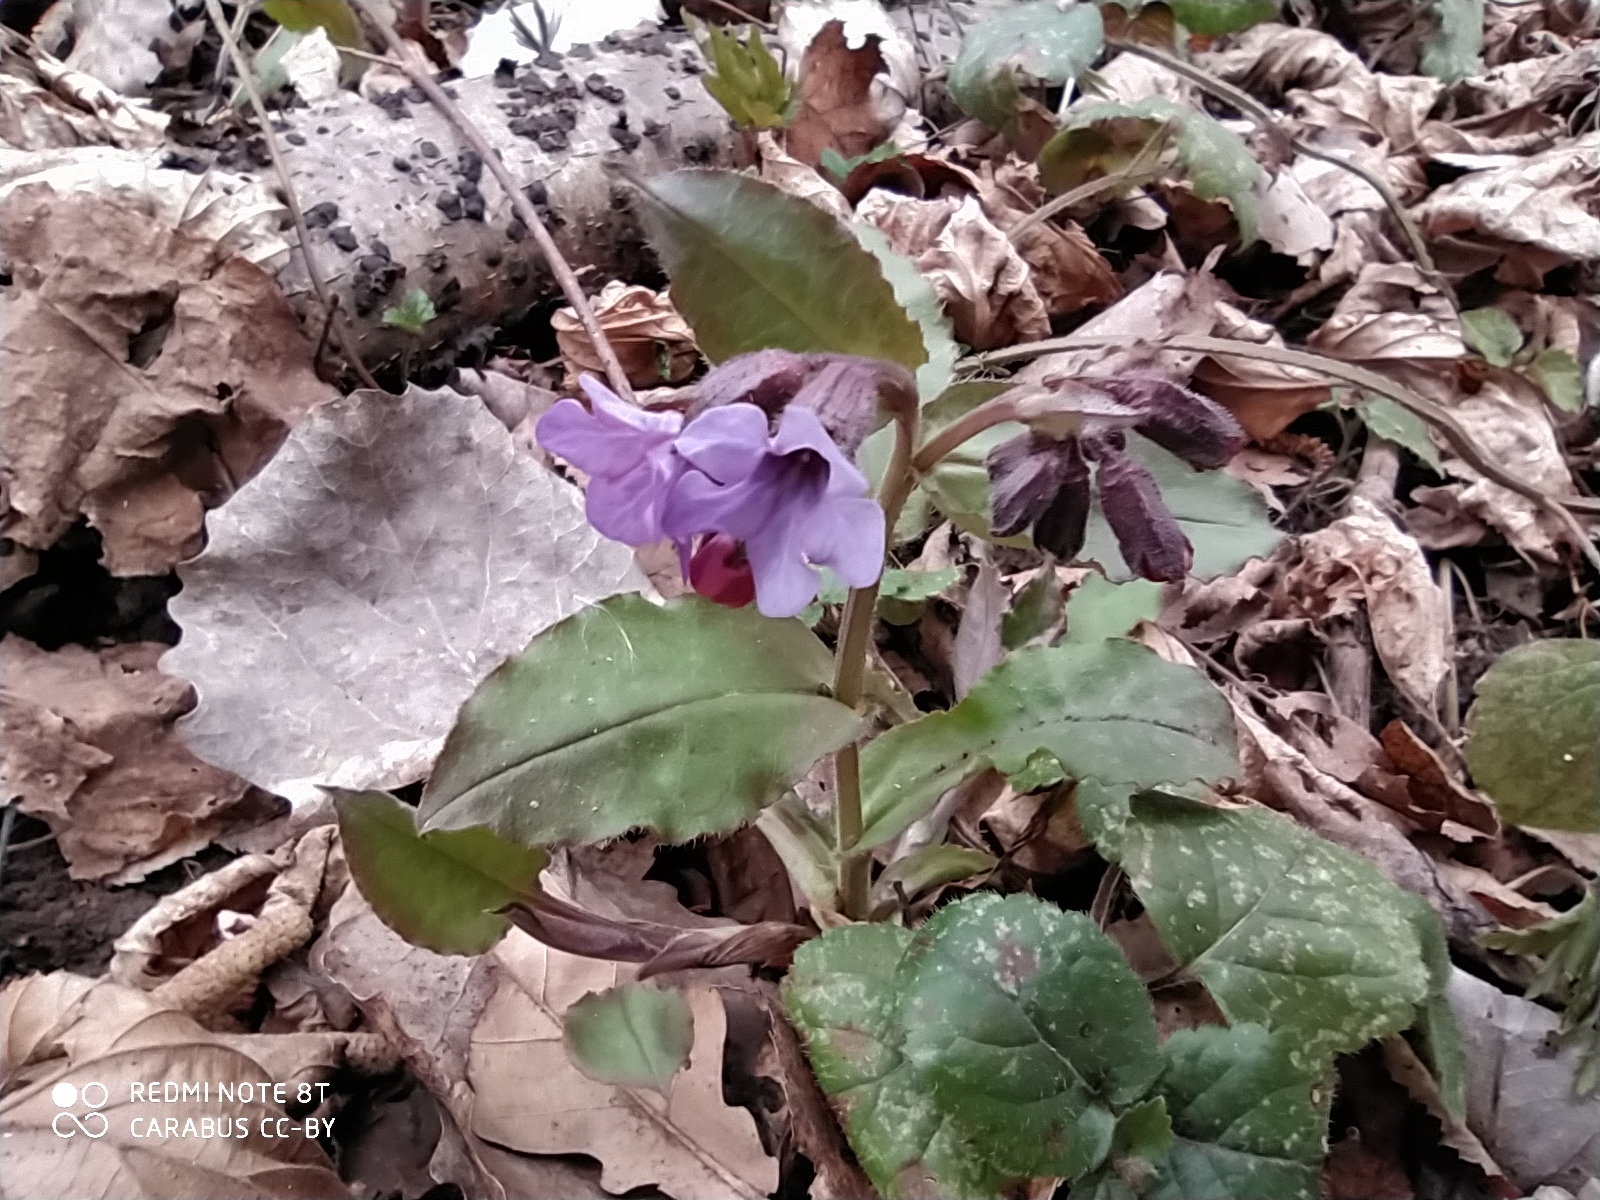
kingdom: Plantae
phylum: Tracheophyta
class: Magnoliopsida
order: Boraginales
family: Boraginaceae
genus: Pulmonaria
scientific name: Pulmonaria obscura
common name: Suffolk lungwort
